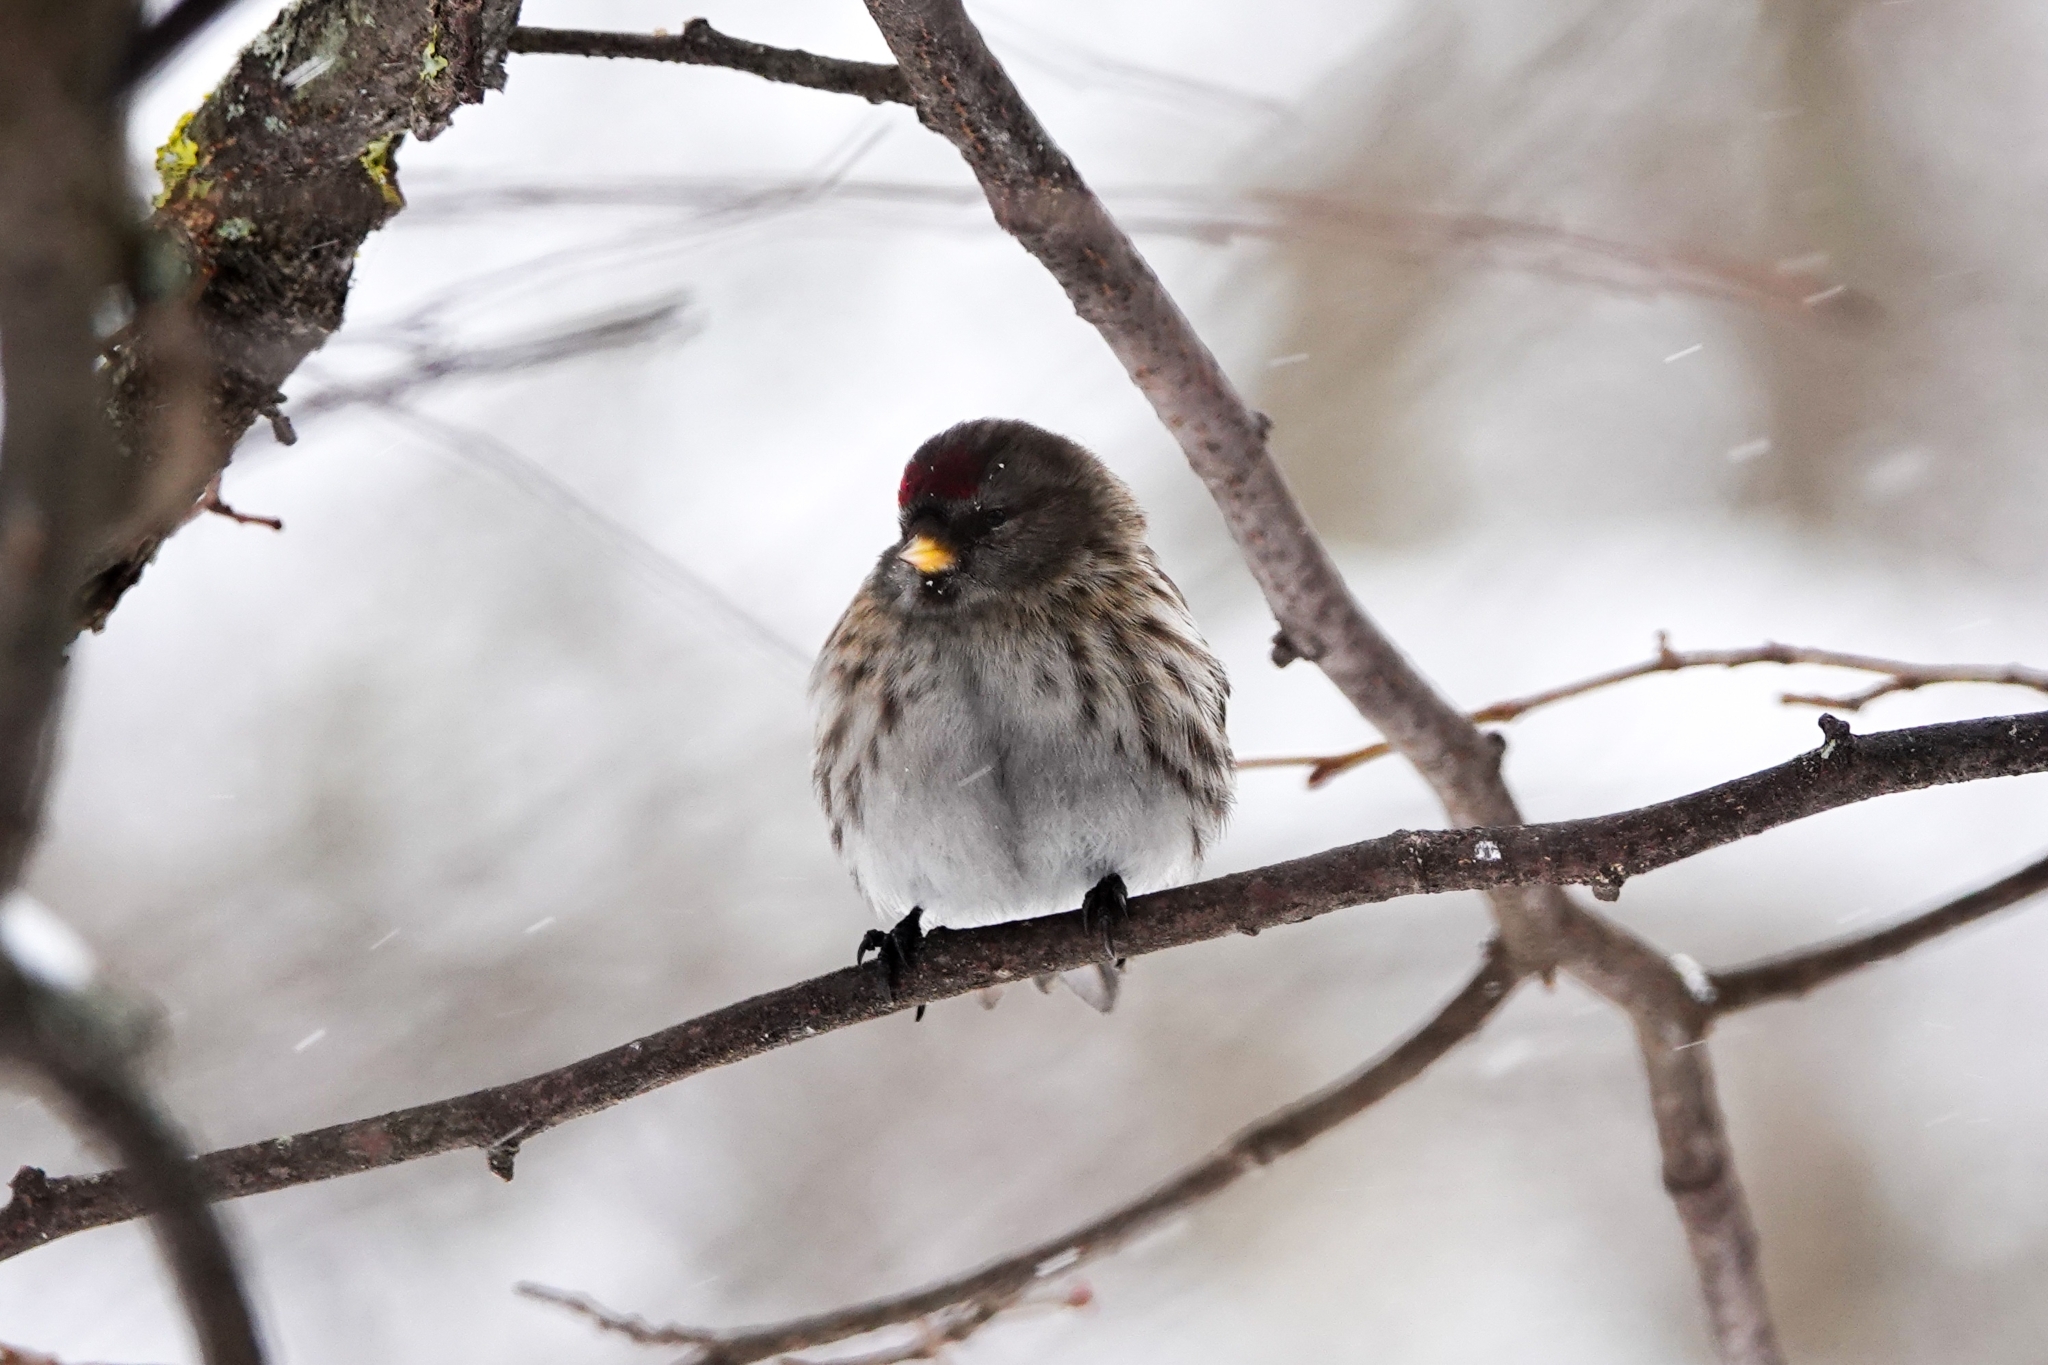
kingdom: Animalia
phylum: Chordata
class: Aves
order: Passeriformes
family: Fringillidae
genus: Acanthis
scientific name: Acanthis flammea
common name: Common redpoll
